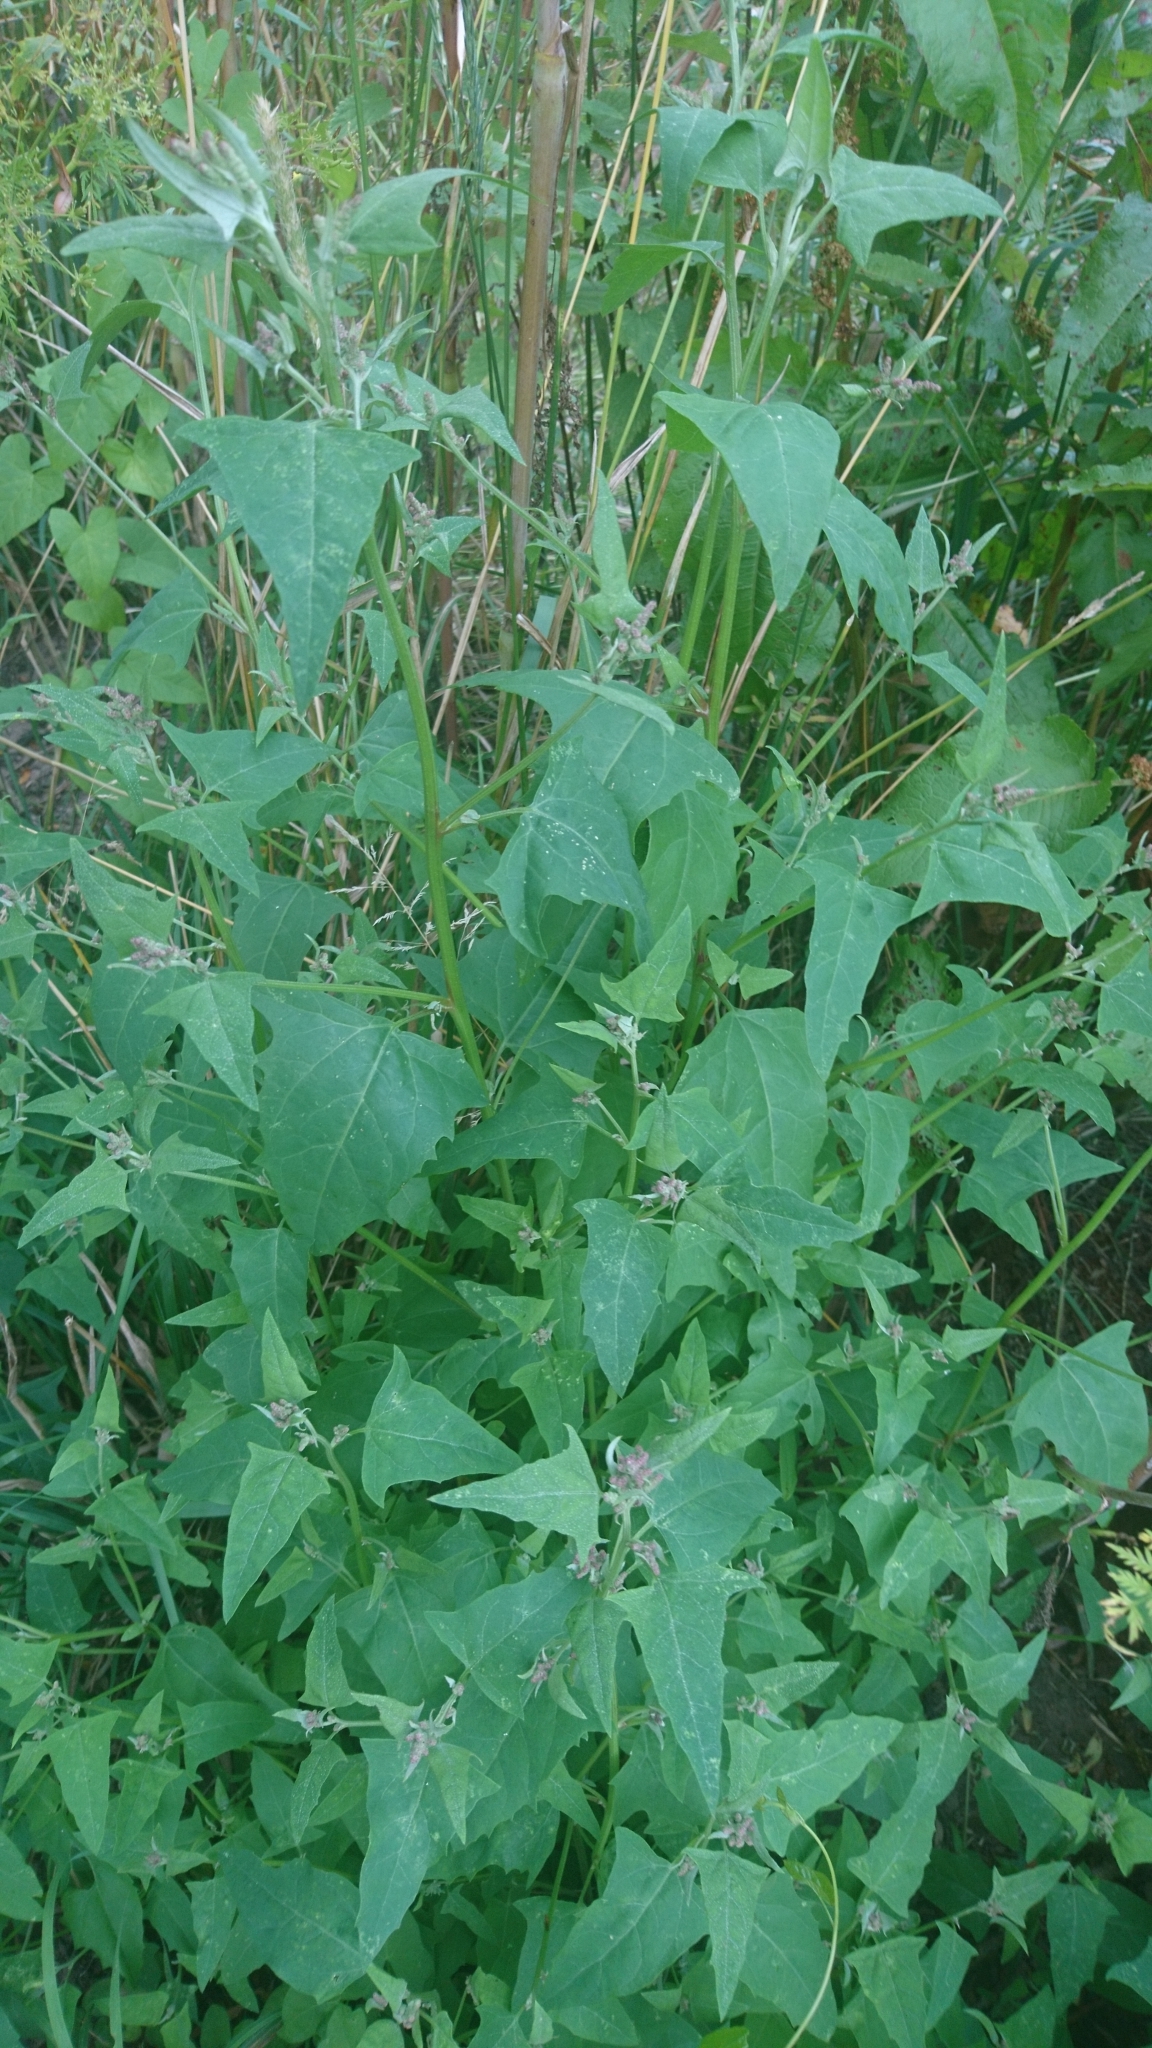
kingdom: Plantae
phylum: Tracheophyta
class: Magnoliopsida
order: Caryophyllales
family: Amaranthaceae
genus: Atriplex
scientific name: Atriplex prostrata
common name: Spear-leaved orache
